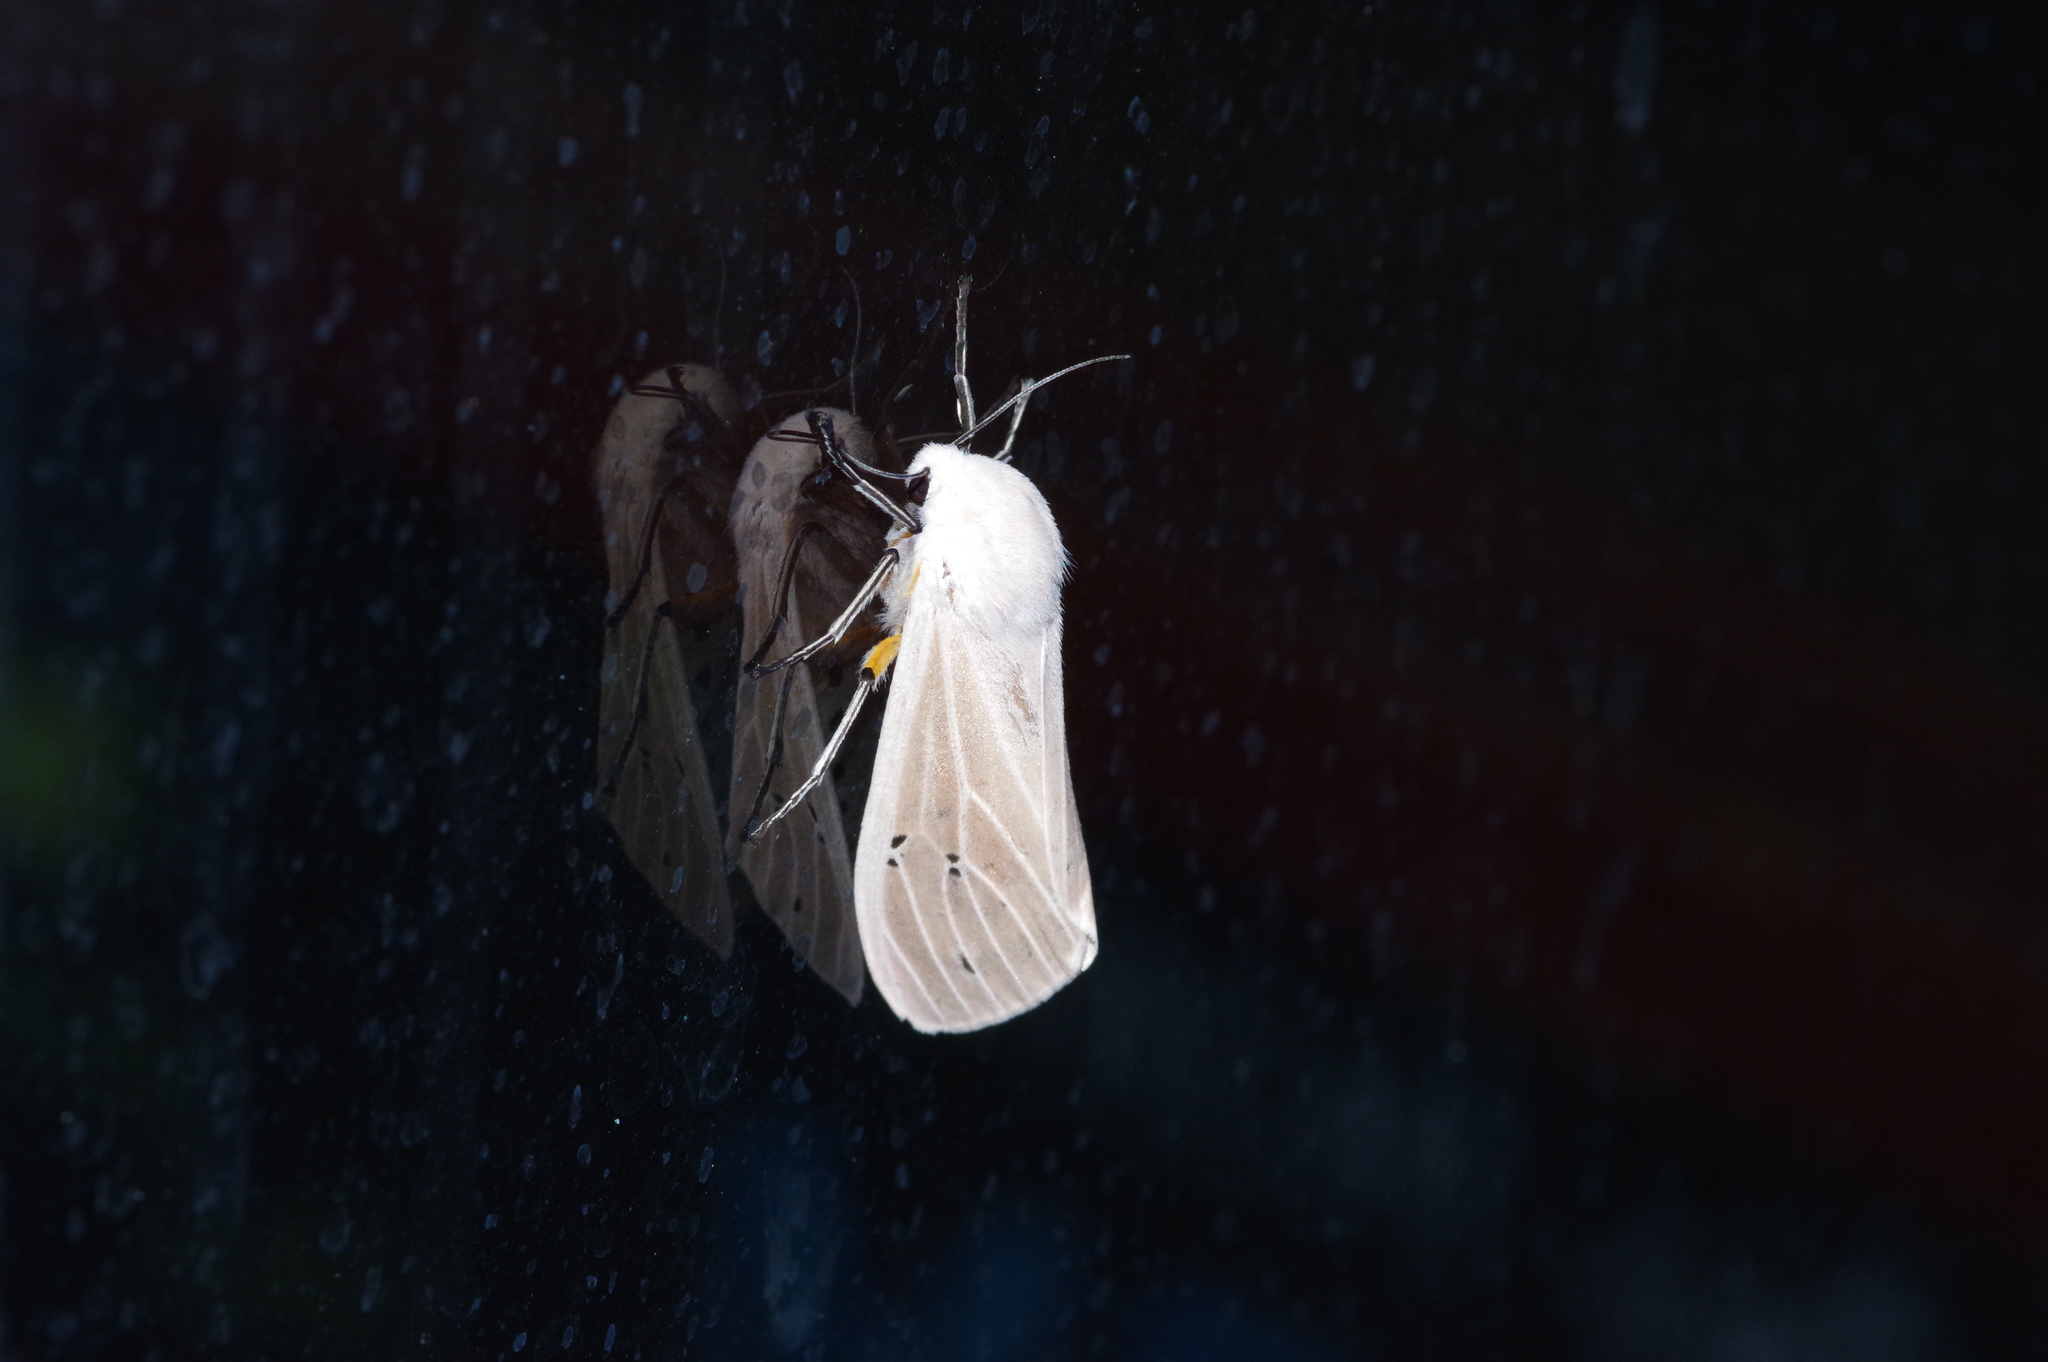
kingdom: Animalia
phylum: Arthropoda
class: Insecta
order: Lepidoptera
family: Erebidae
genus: Creatonotos
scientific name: Creatonotos transiens
